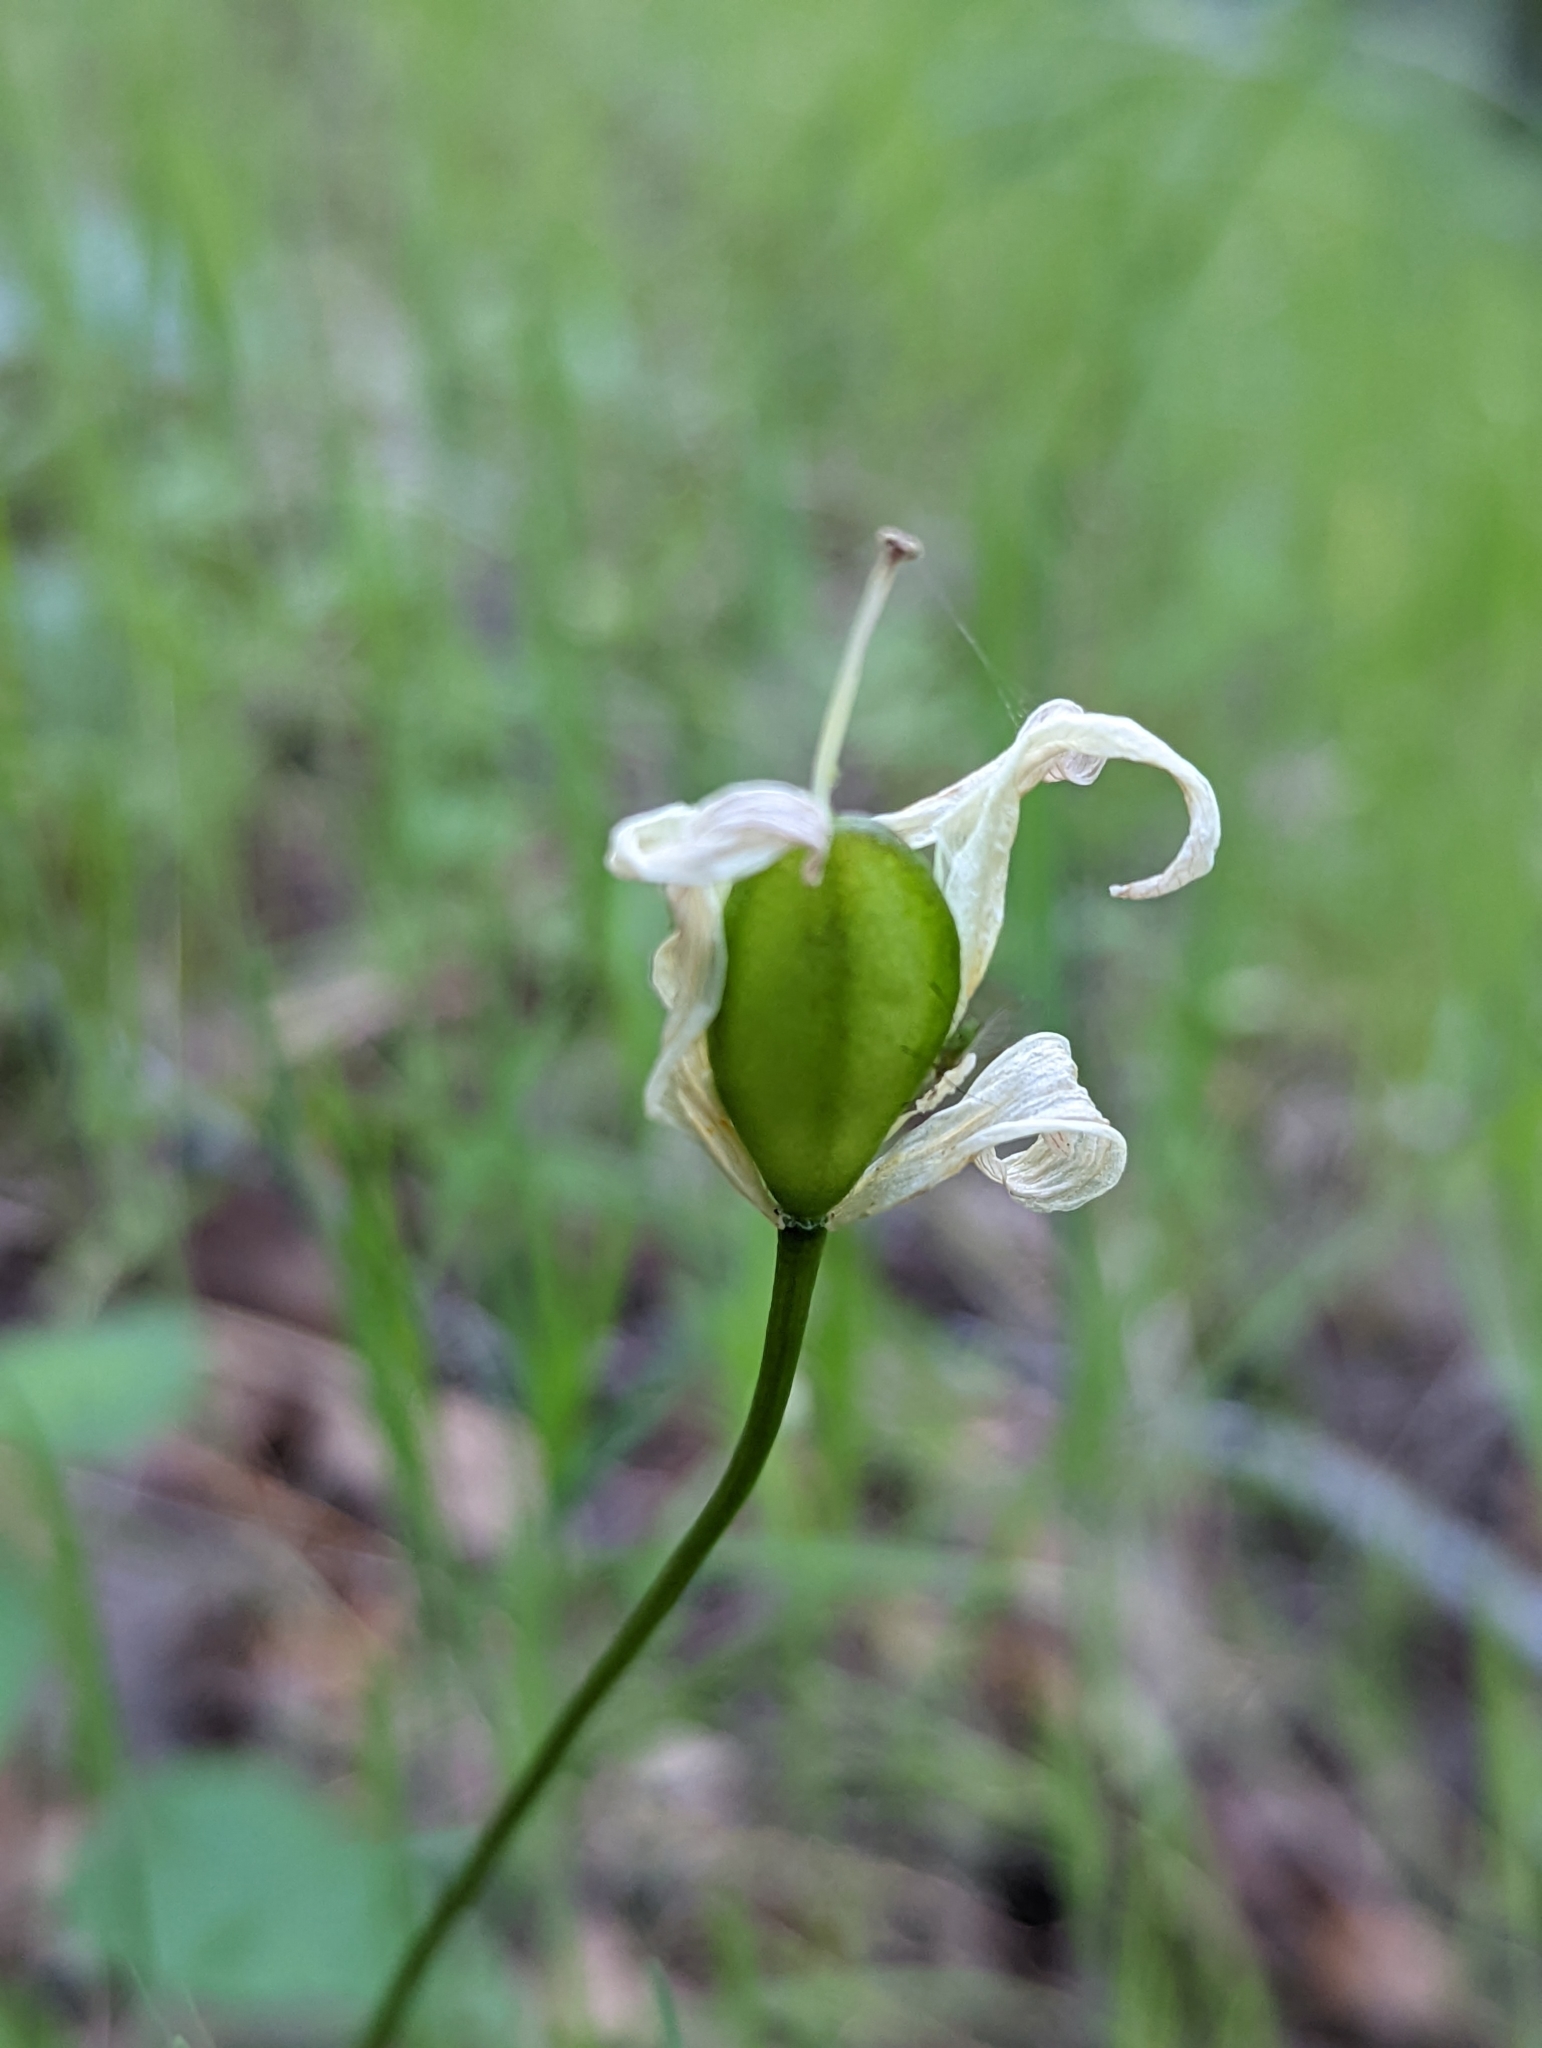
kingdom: Plantae
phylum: Tracheophyta
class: Liliopsida
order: Liliales
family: Liliaceae
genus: Erythronium
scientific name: Erythronium californicum
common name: Fawn-lily
